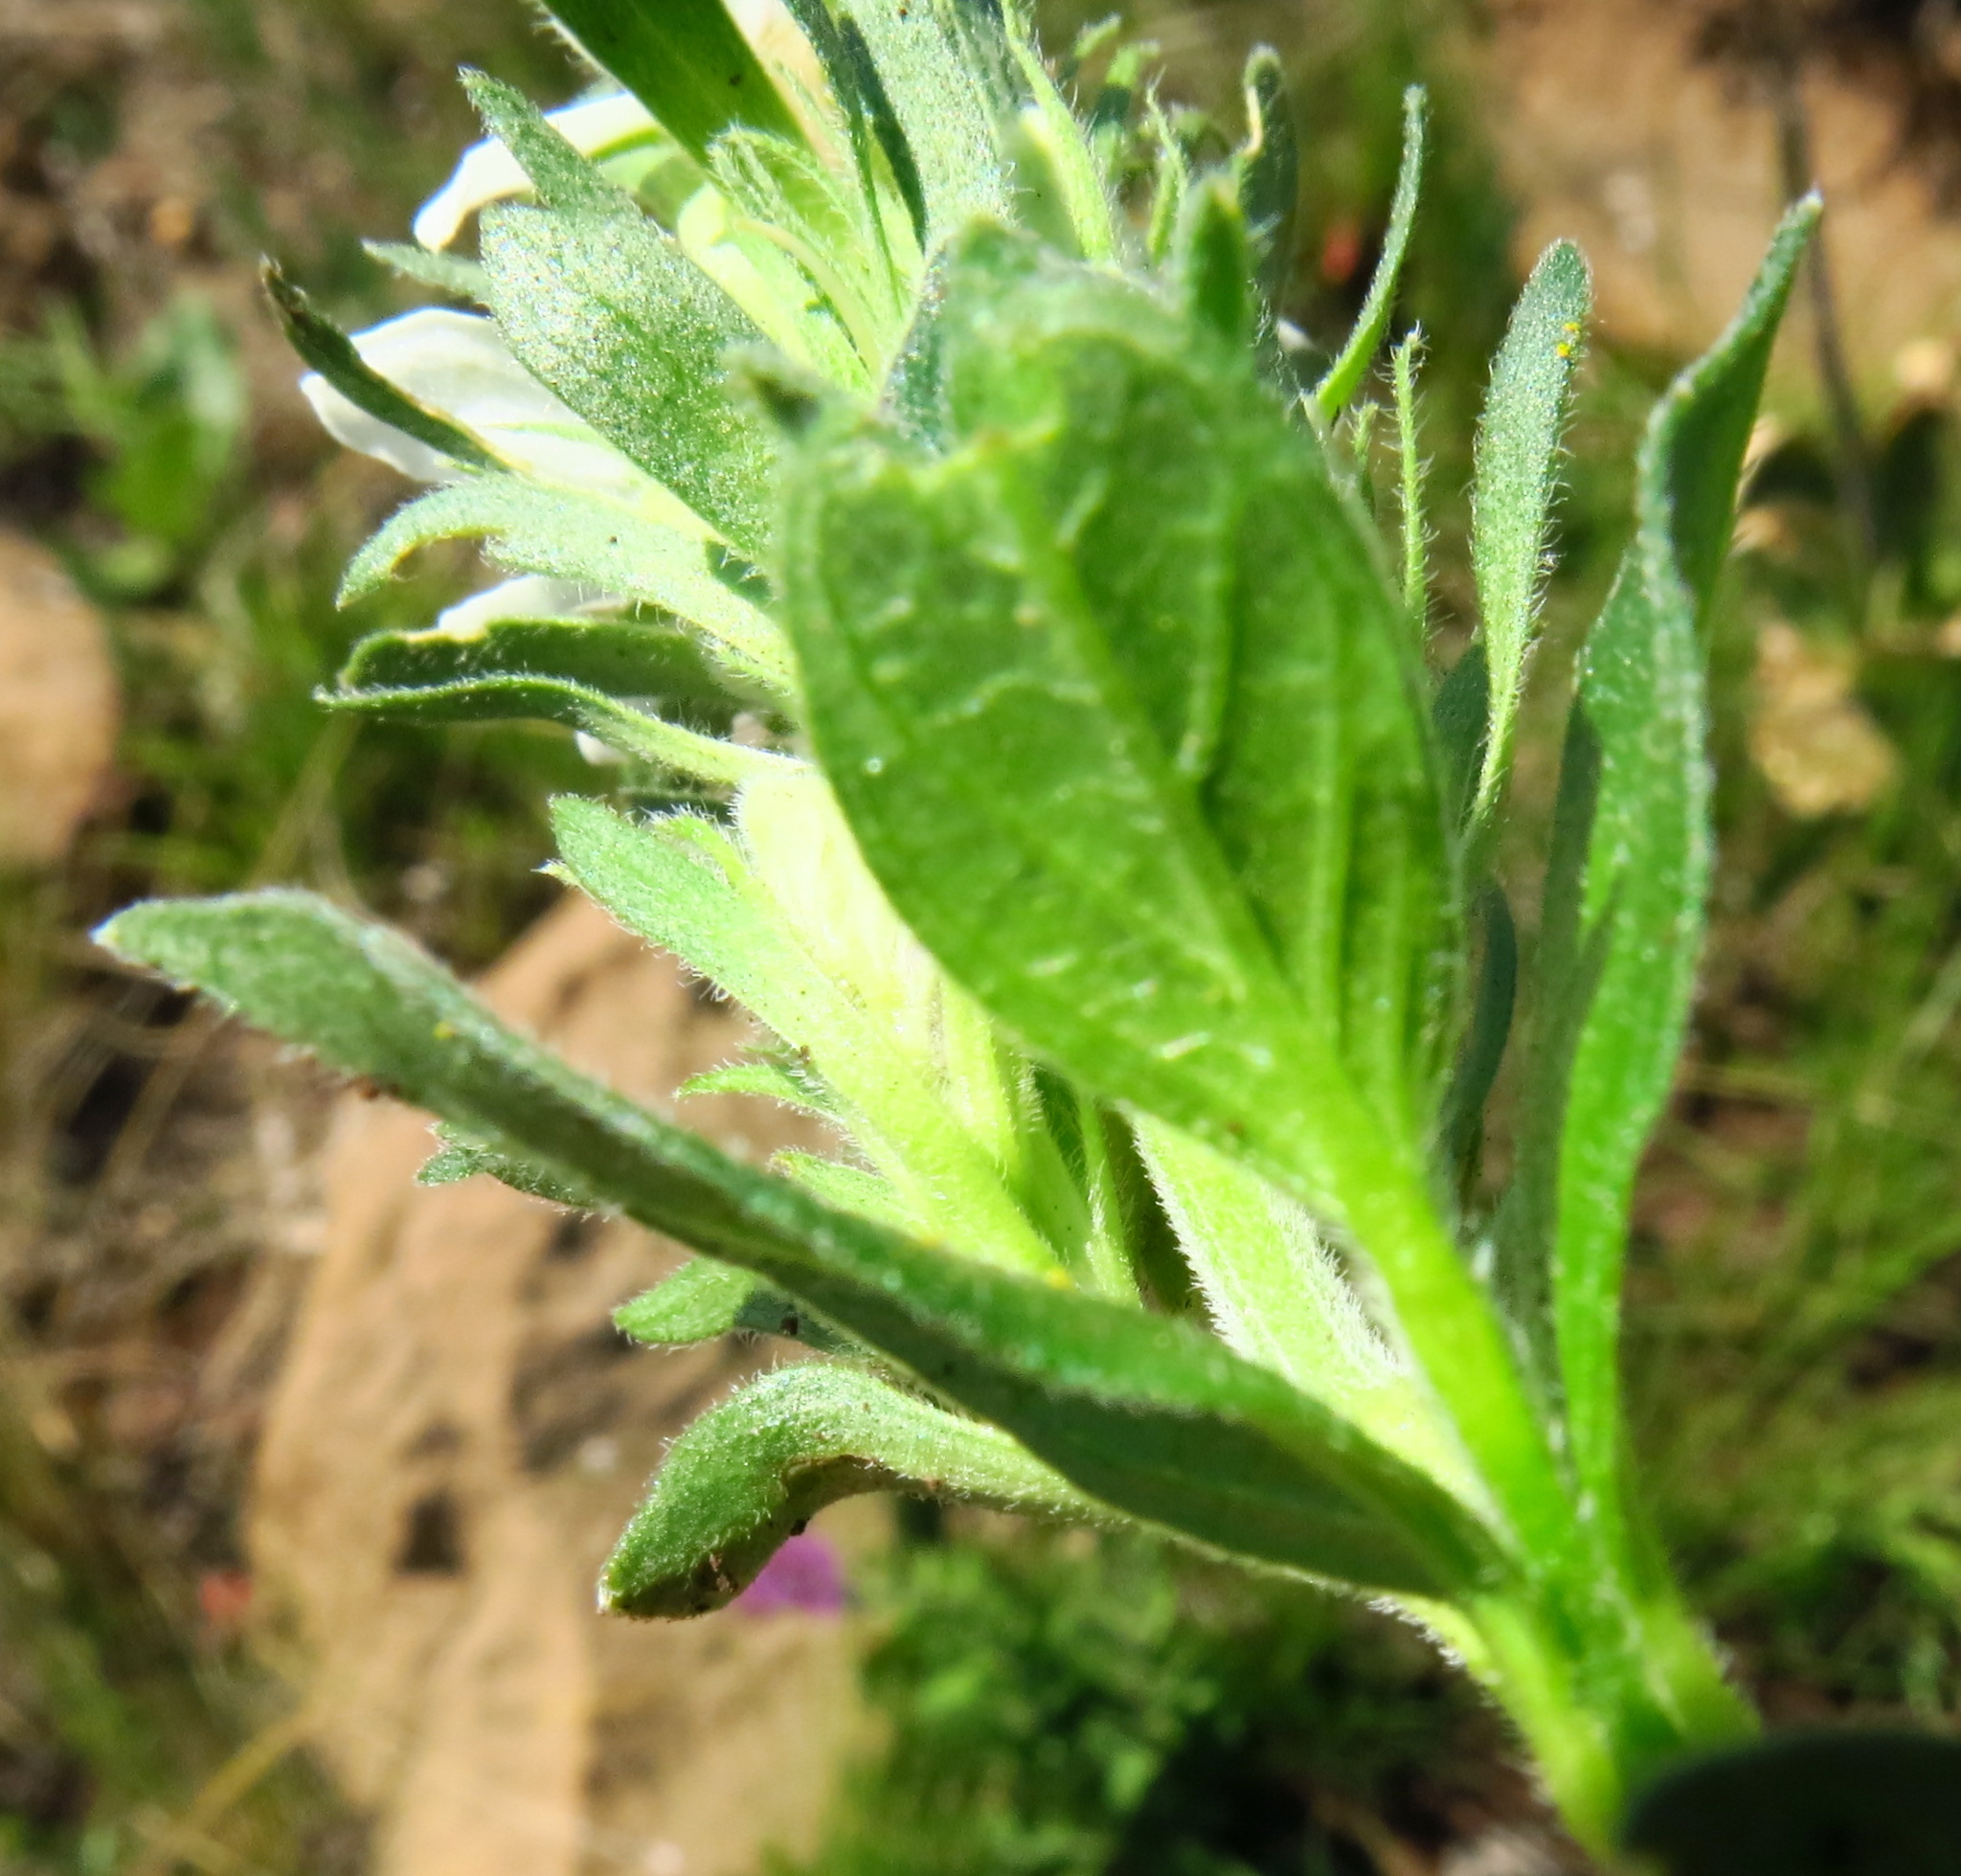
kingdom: Plantae
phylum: Tracheophyta
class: Magnoliopsida
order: Lamiales
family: Acanthaceae
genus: Justicia
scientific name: Justicia andromeda
